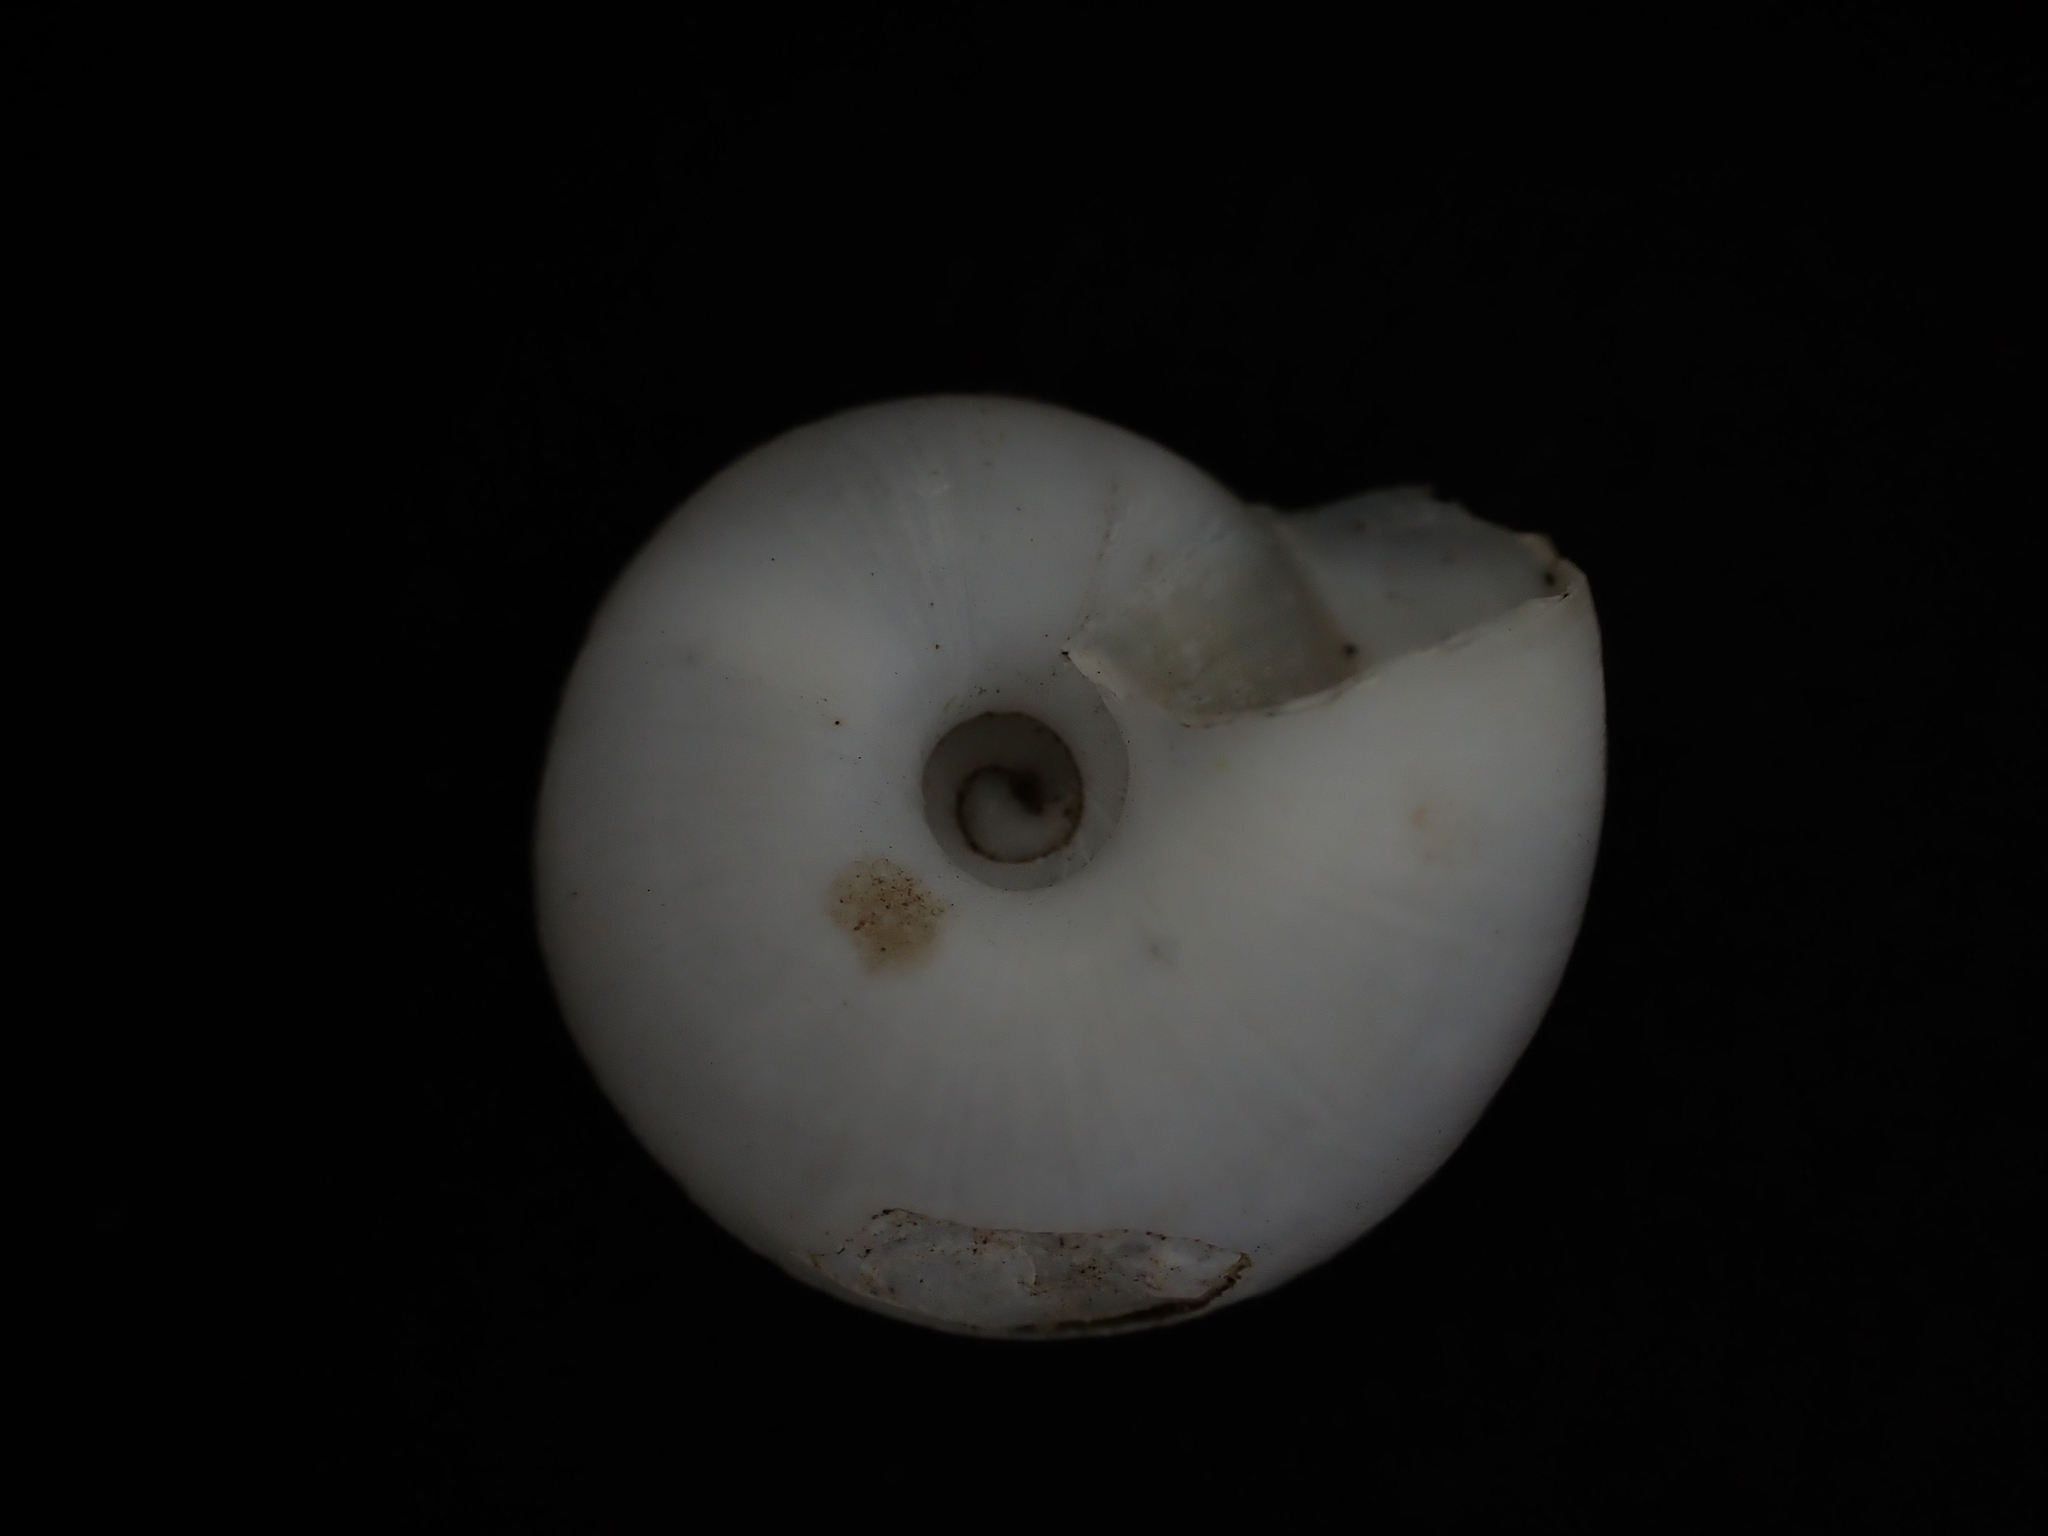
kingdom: Animalia
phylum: Mollusca
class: Gastropoda
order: Stylommatophora
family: Zonitidae
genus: Zonites
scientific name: Zonites algirus
